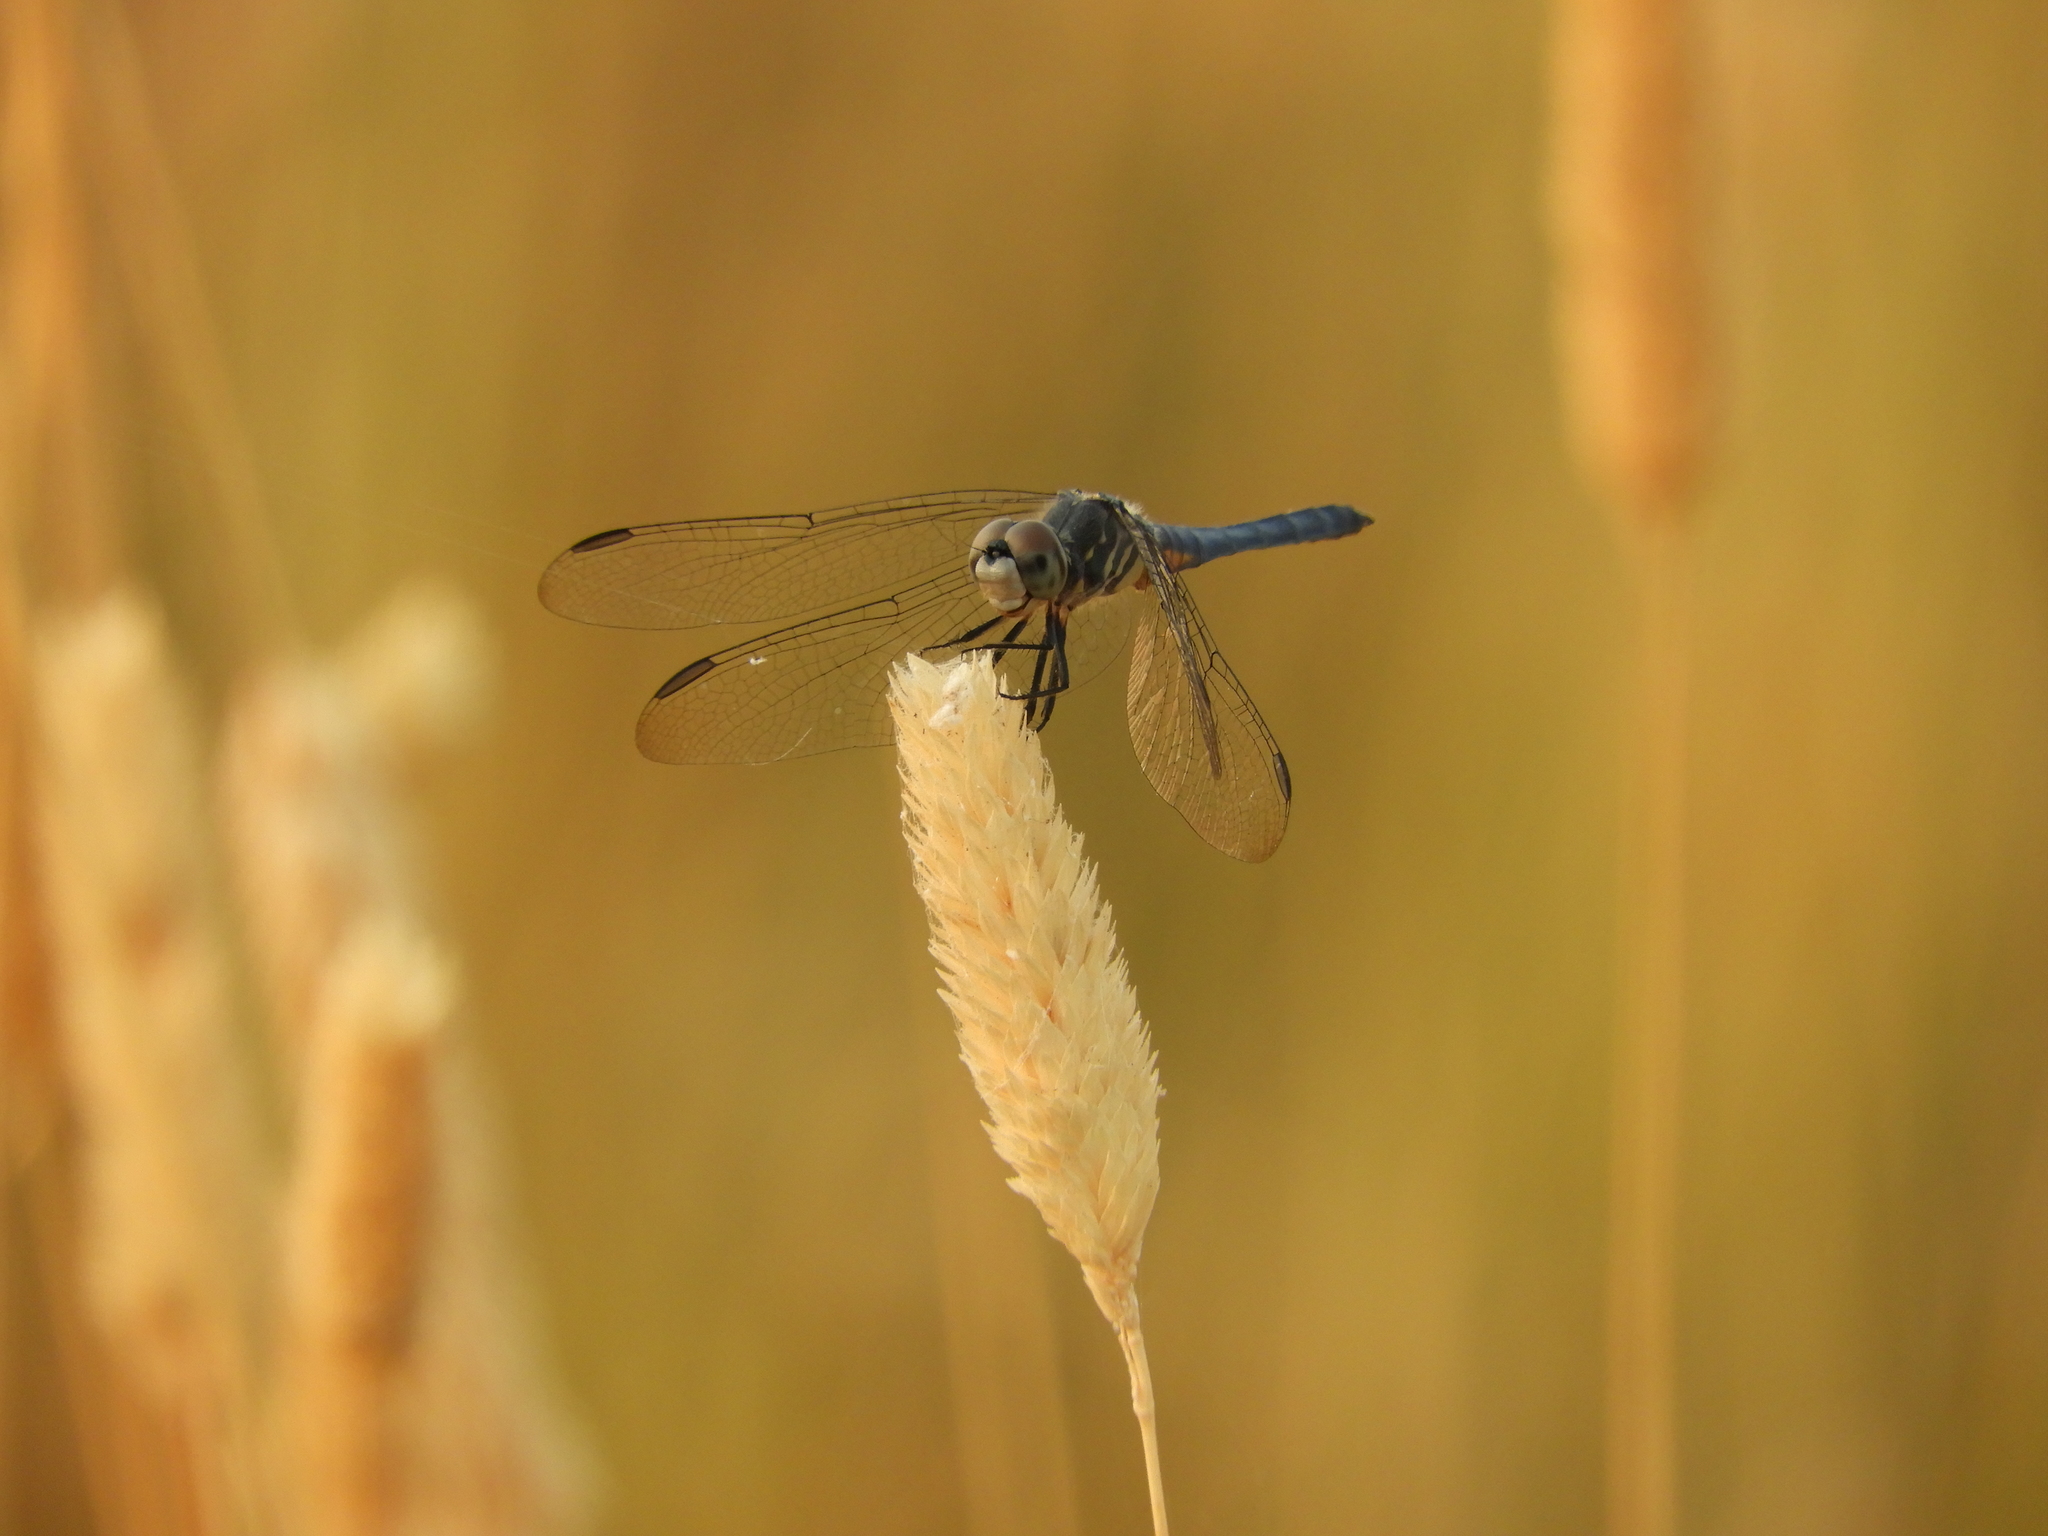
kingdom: Animalia
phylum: Arthropoda
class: Insecta
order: Odonata
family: Libellulidae
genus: Pachydiplax
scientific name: Pachydiplax longipennis
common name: Blue dasher
